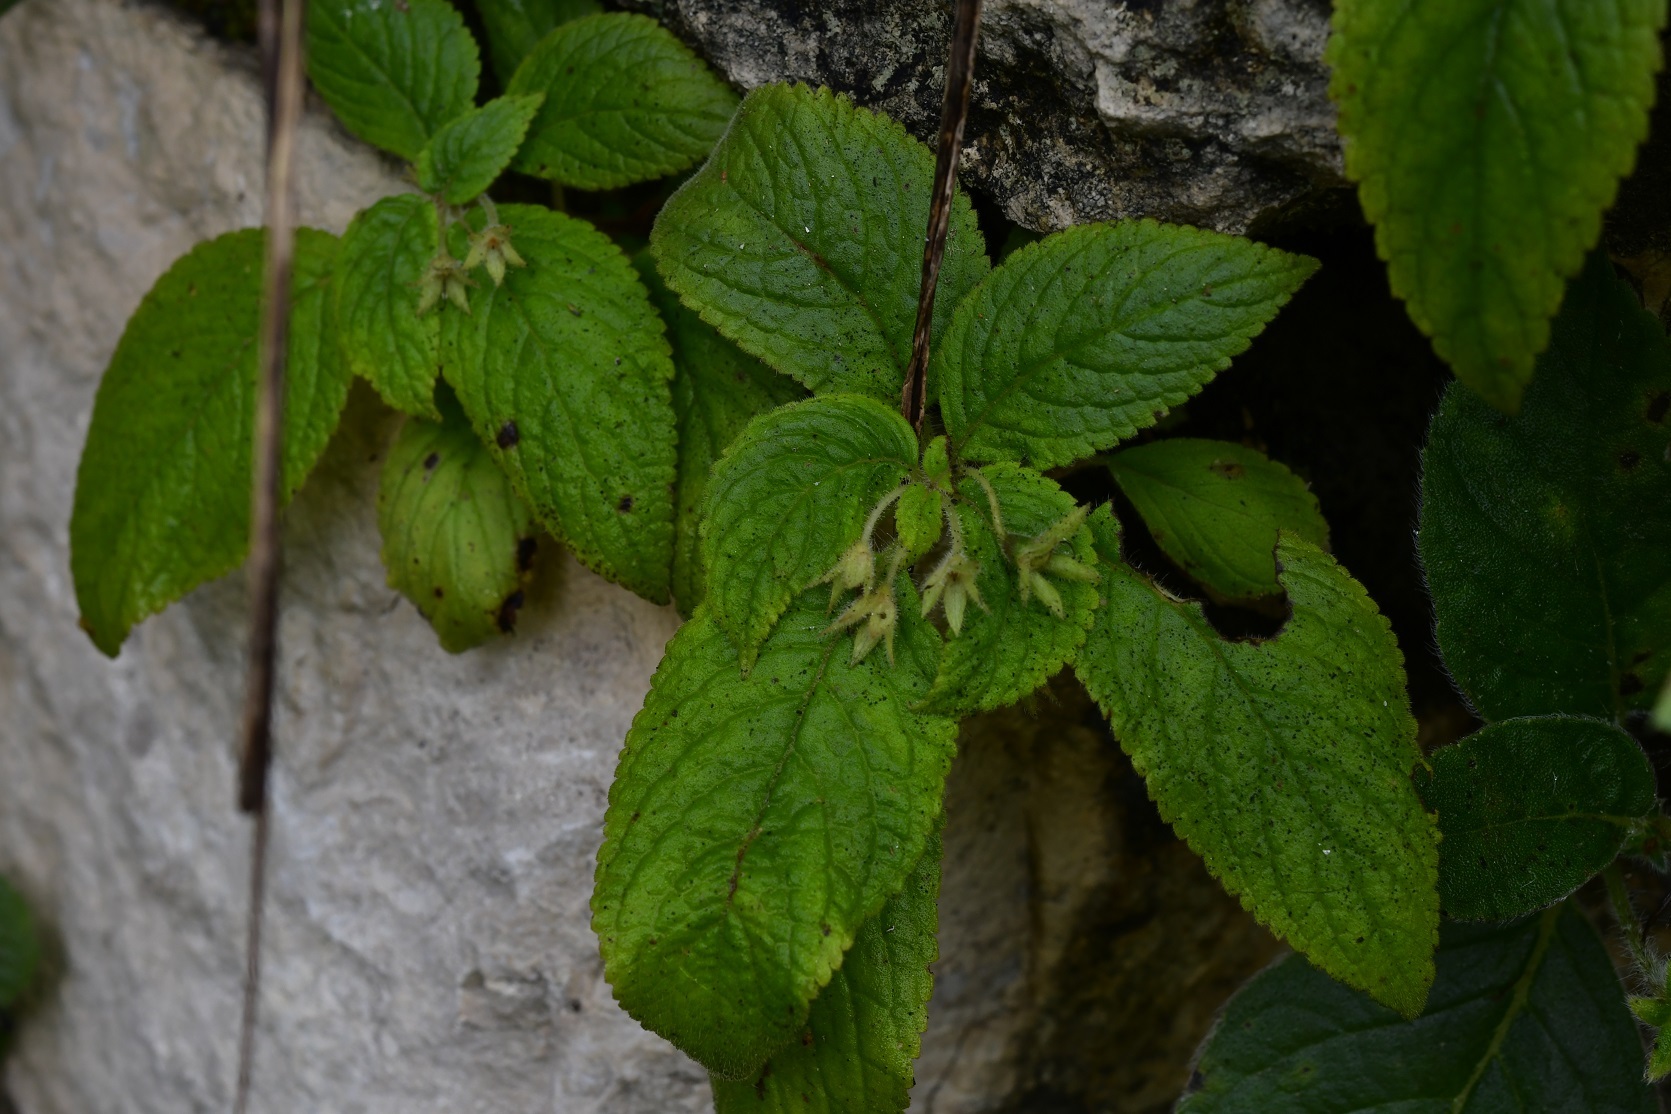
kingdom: Plantae
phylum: Tracheophyta
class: Magnoliopsida
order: Lamiales
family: Gesneriaceae
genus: Achimenes
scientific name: Achimenes misera
